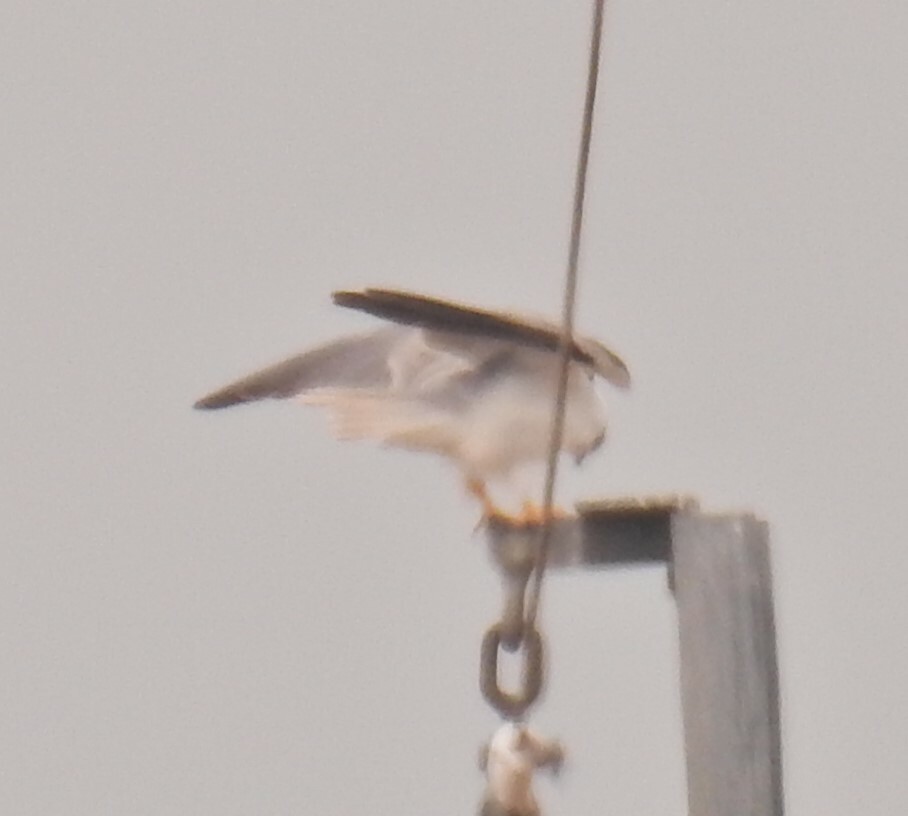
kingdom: Animalia
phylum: Chordata
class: Aves
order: Accipitriformes
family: Accipitridae
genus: Elanus
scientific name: Elanus axillaris
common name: Black-shouldered kite
